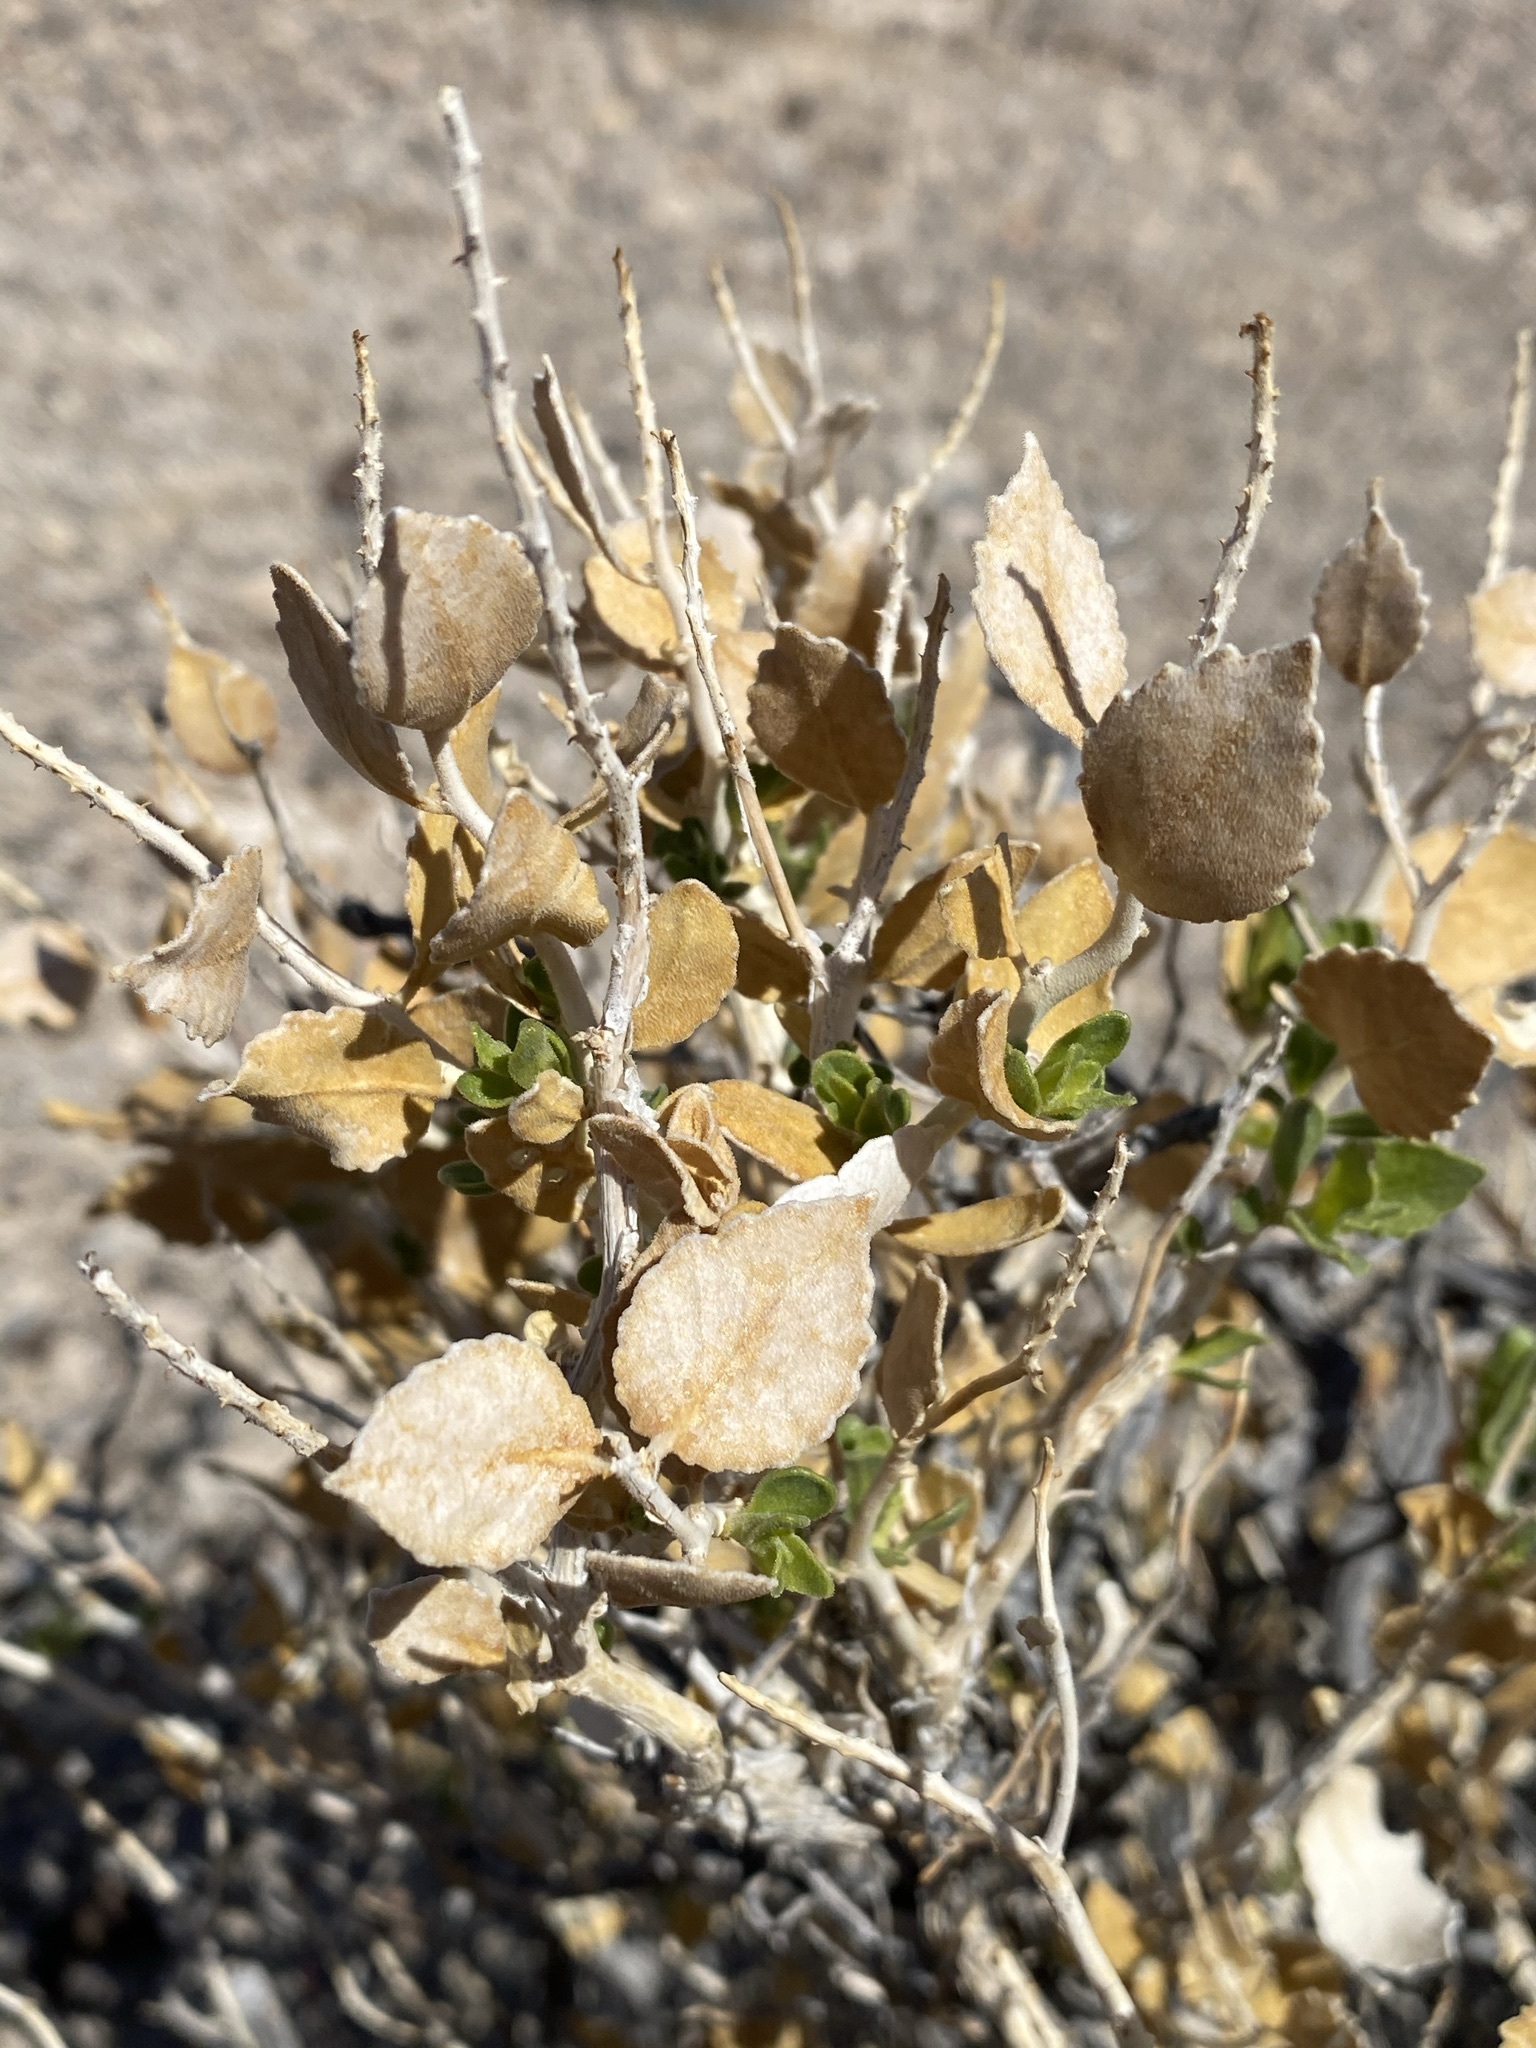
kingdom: Plantae
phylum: Tracheophyta
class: Magnoliopsida
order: Cornales
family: Loasaceae
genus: Petalonyx
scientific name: Petalonyx nitidus
